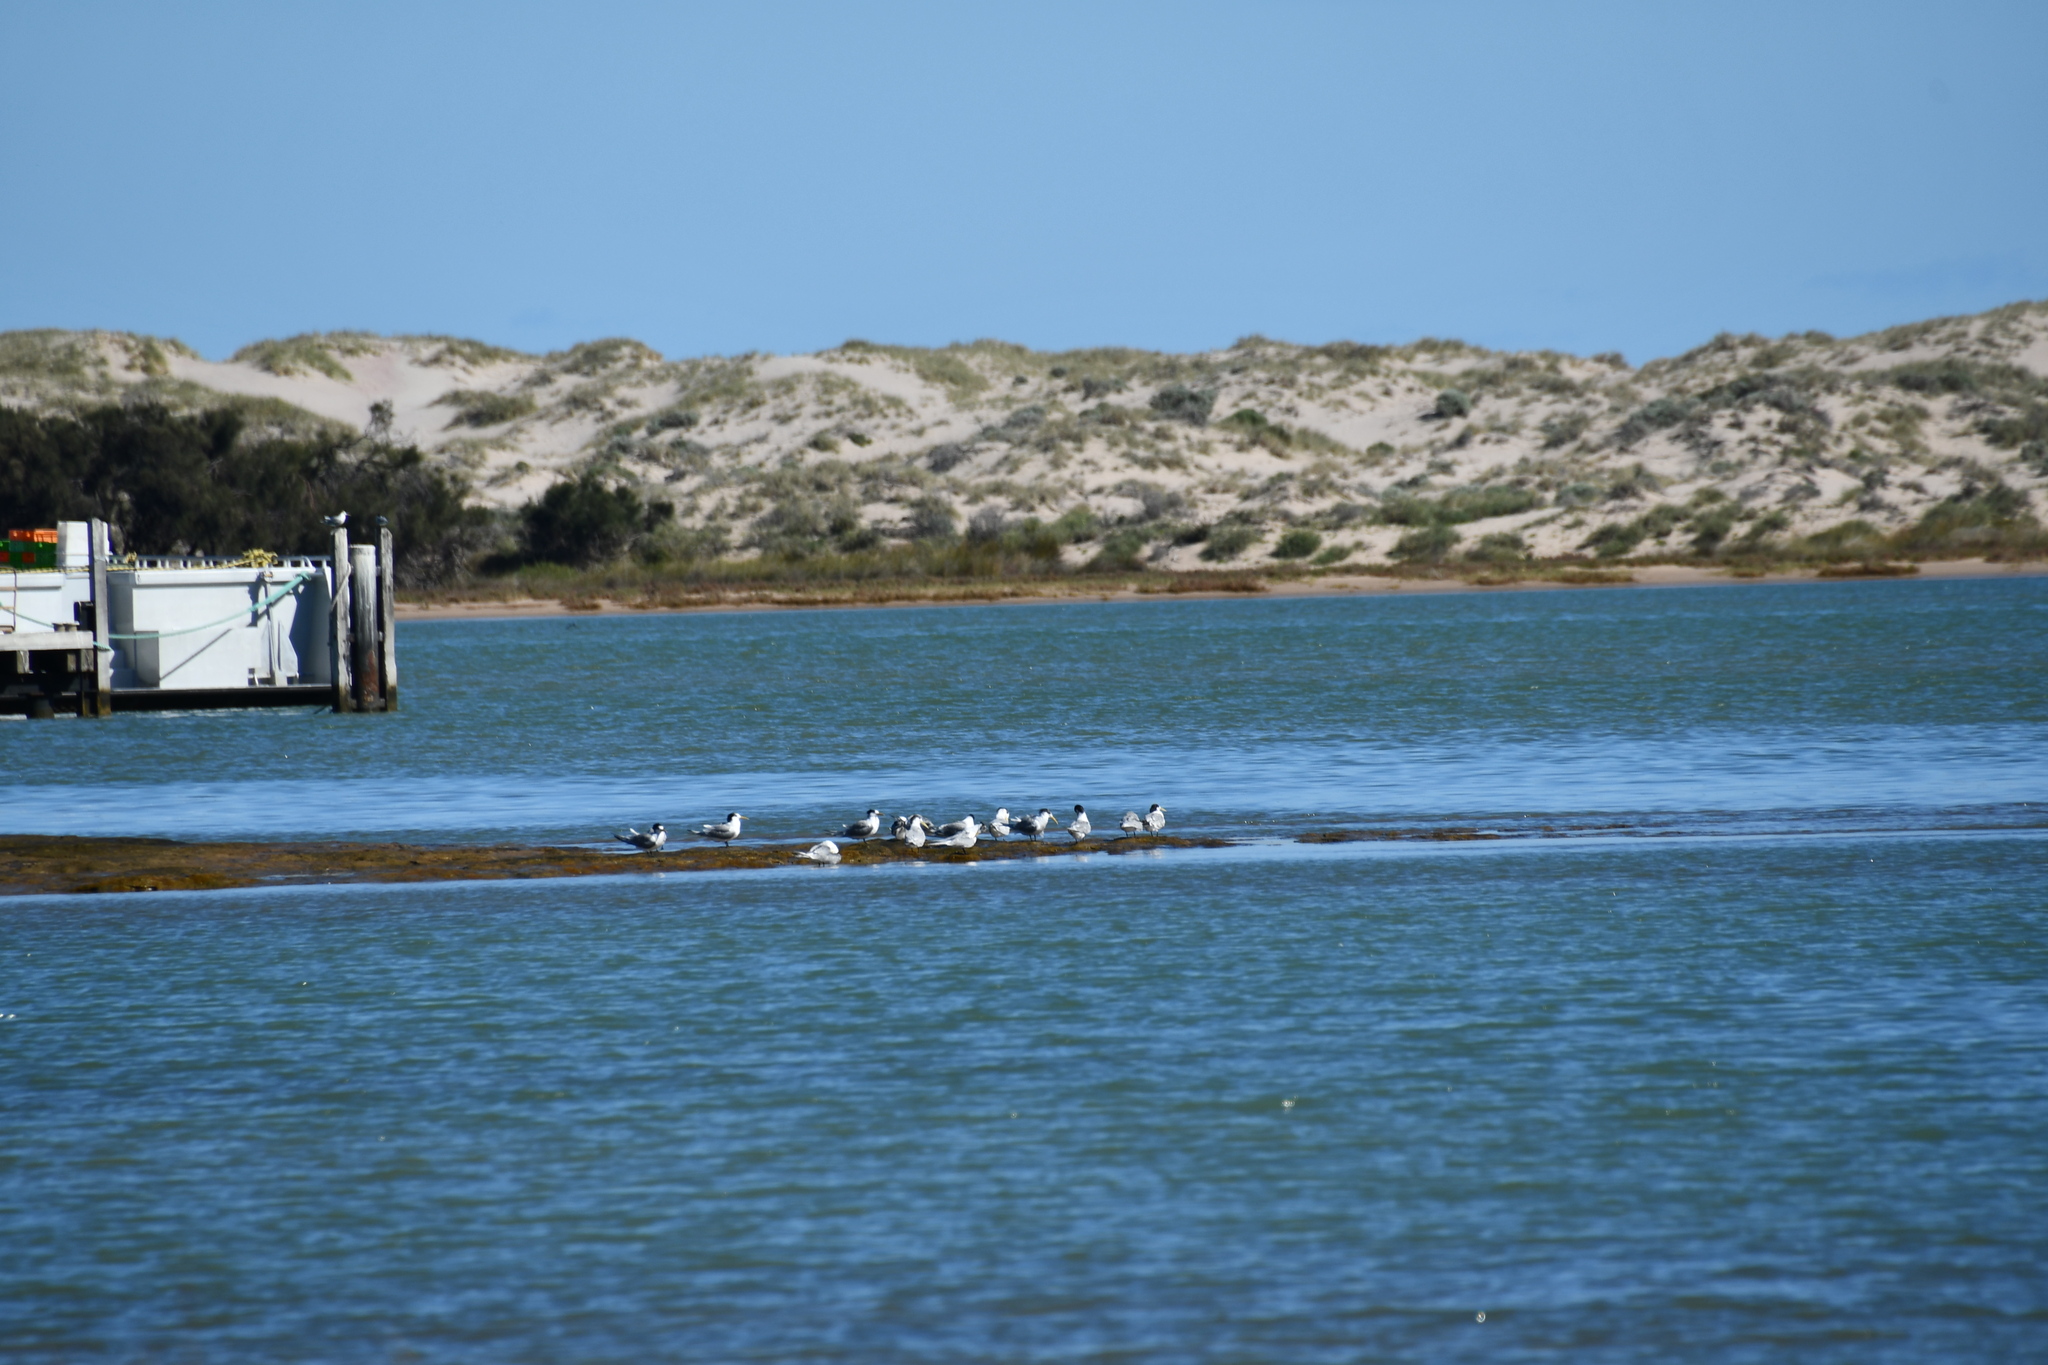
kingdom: Animalia
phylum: Chordata
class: Aves
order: Charadriiformes
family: Laridae
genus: Thalasseus
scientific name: Thalasseus bergii
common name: Greater crested tern
